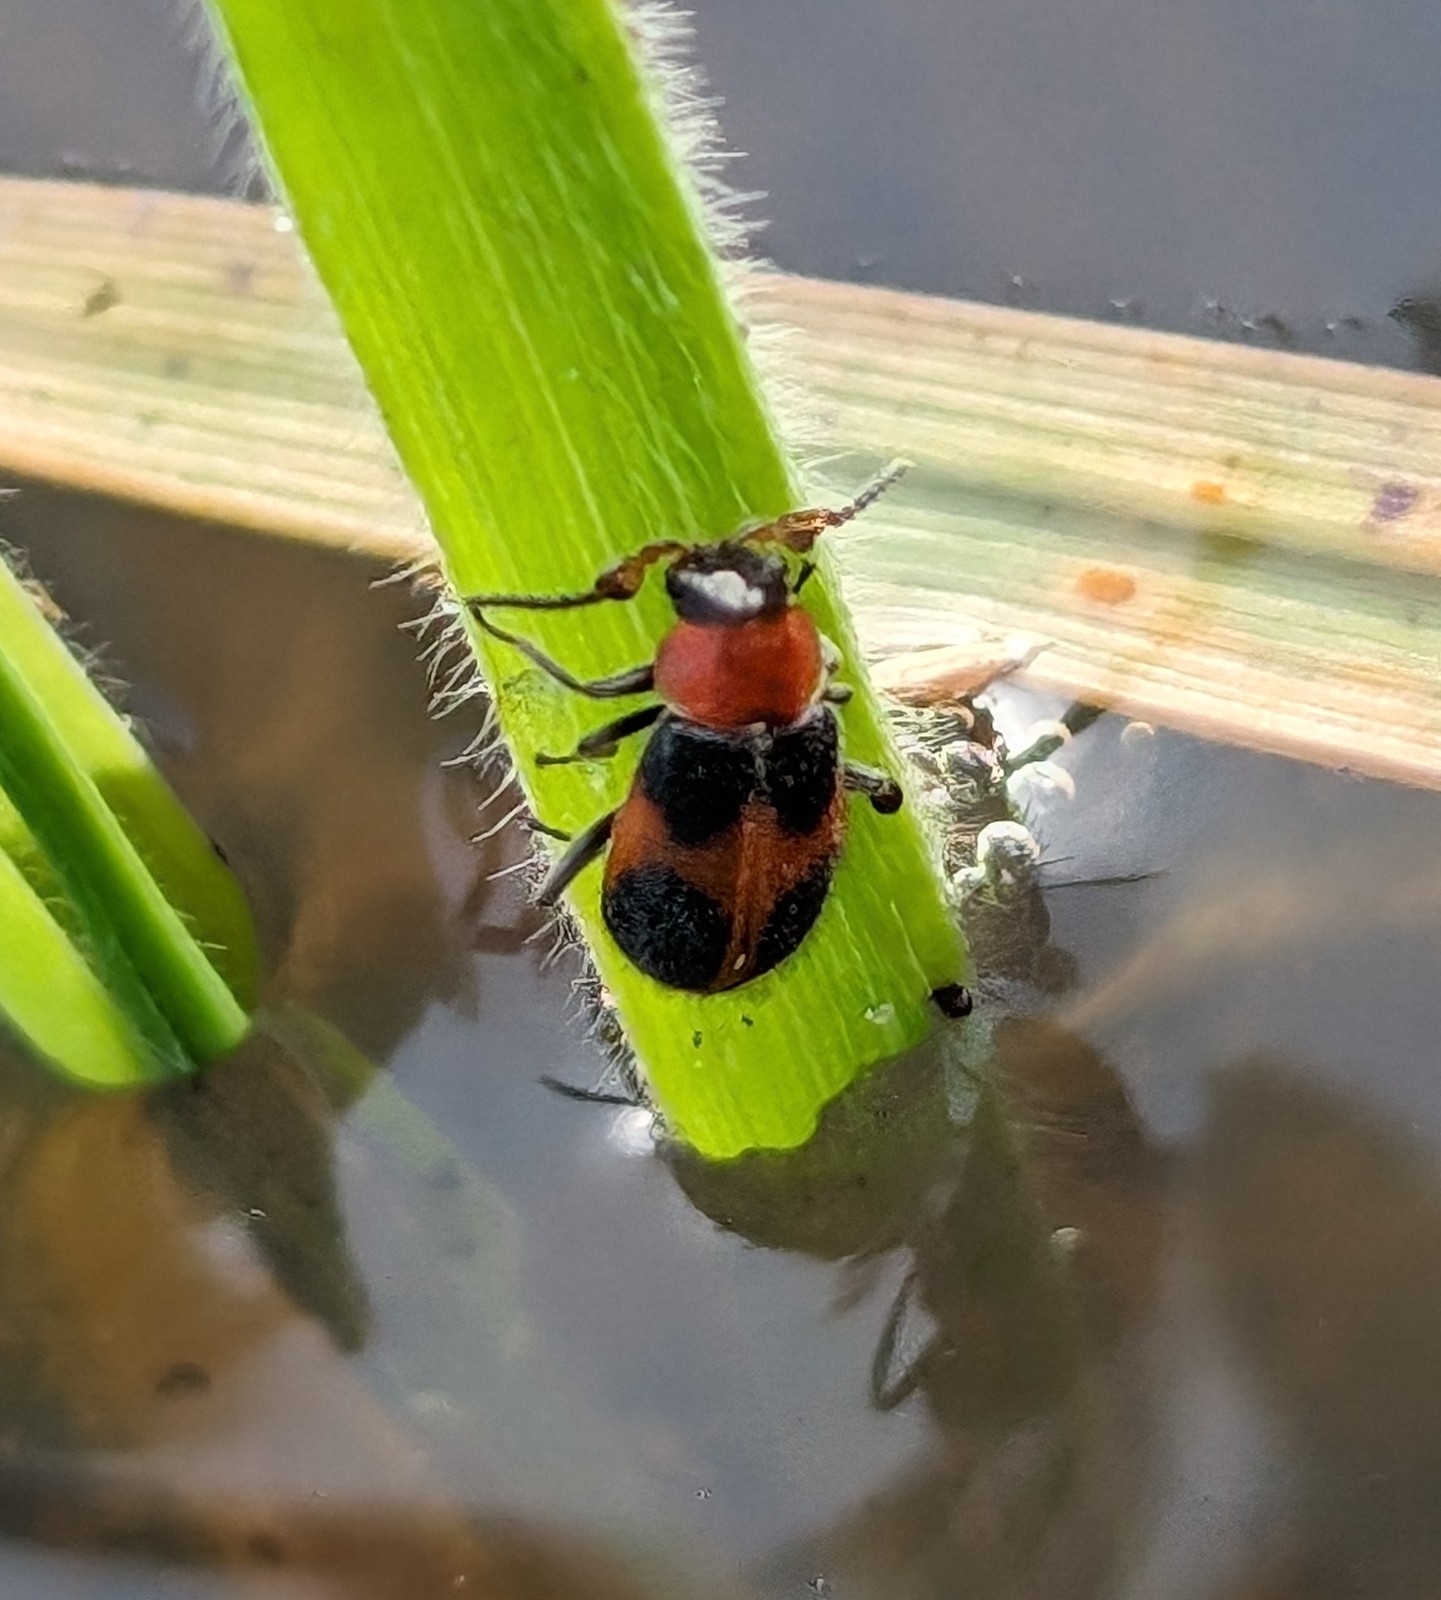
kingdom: Animalia
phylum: Arthropoda
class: Insecta
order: Coleoptera
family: Melyridae
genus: Collops
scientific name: Collops quadrimaculatus
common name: Four-spotted collops
